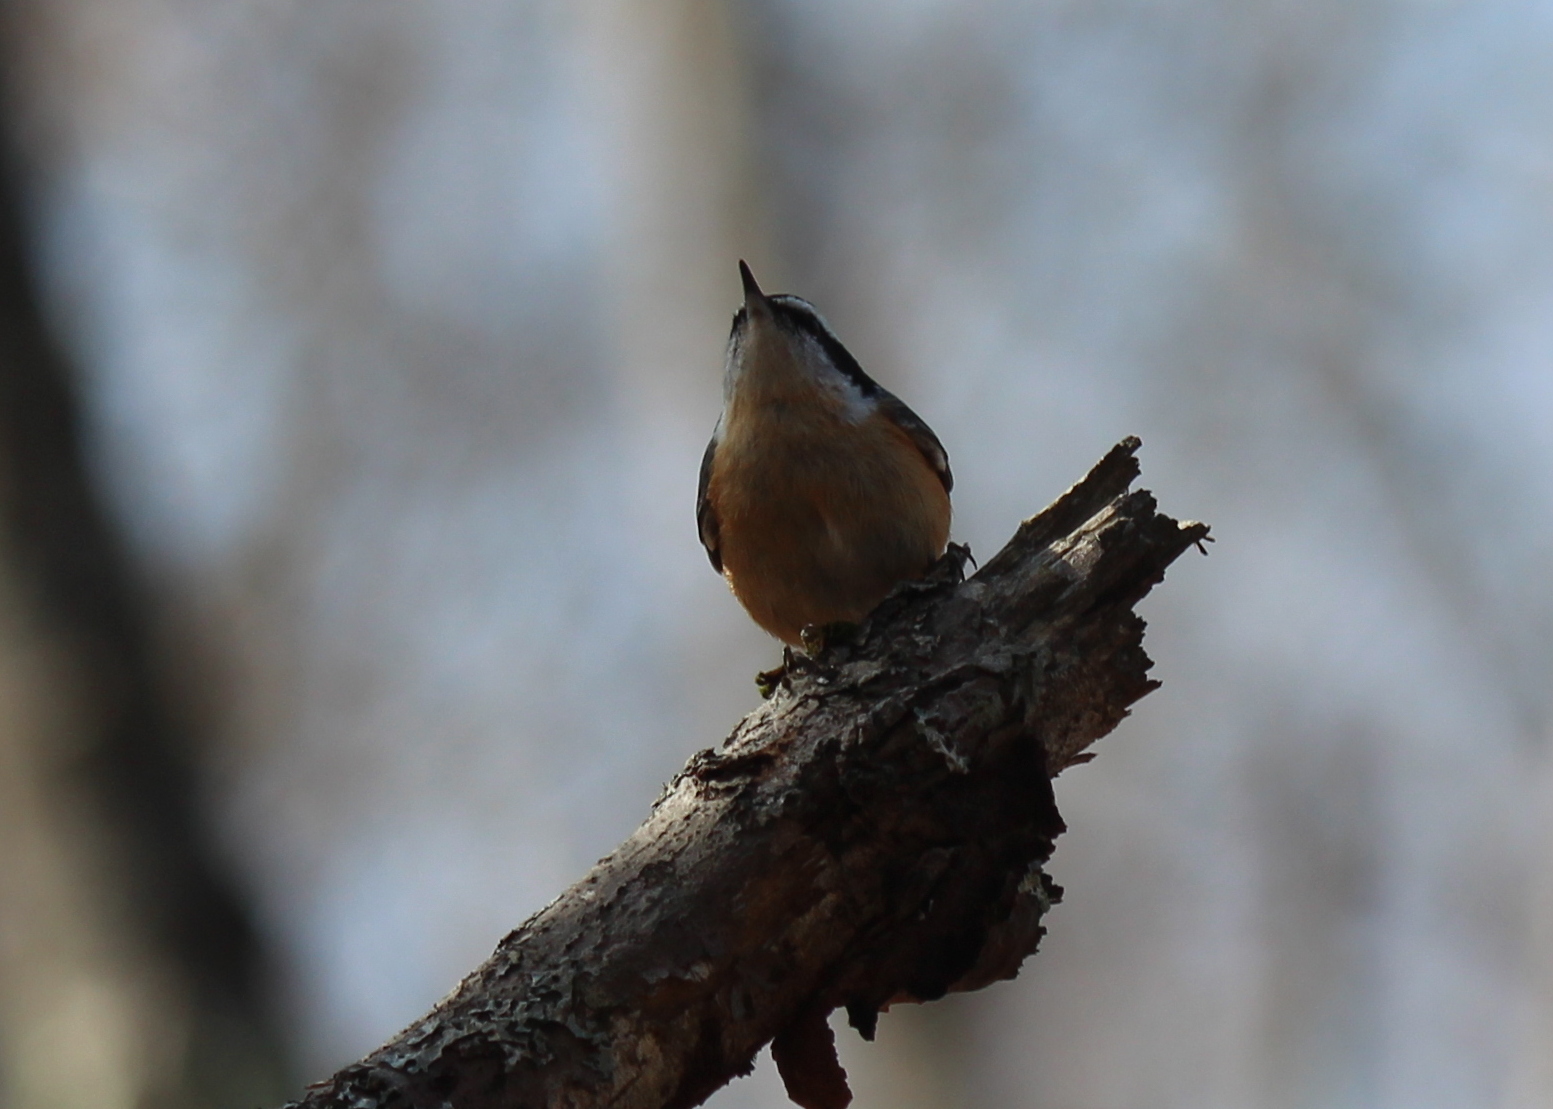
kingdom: Animalia
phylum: Chordata
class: Aves
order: Passeriformes
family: Sittidae
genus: Sitta
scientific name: Sitta canadensis
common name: Red-breasted nuthatch
